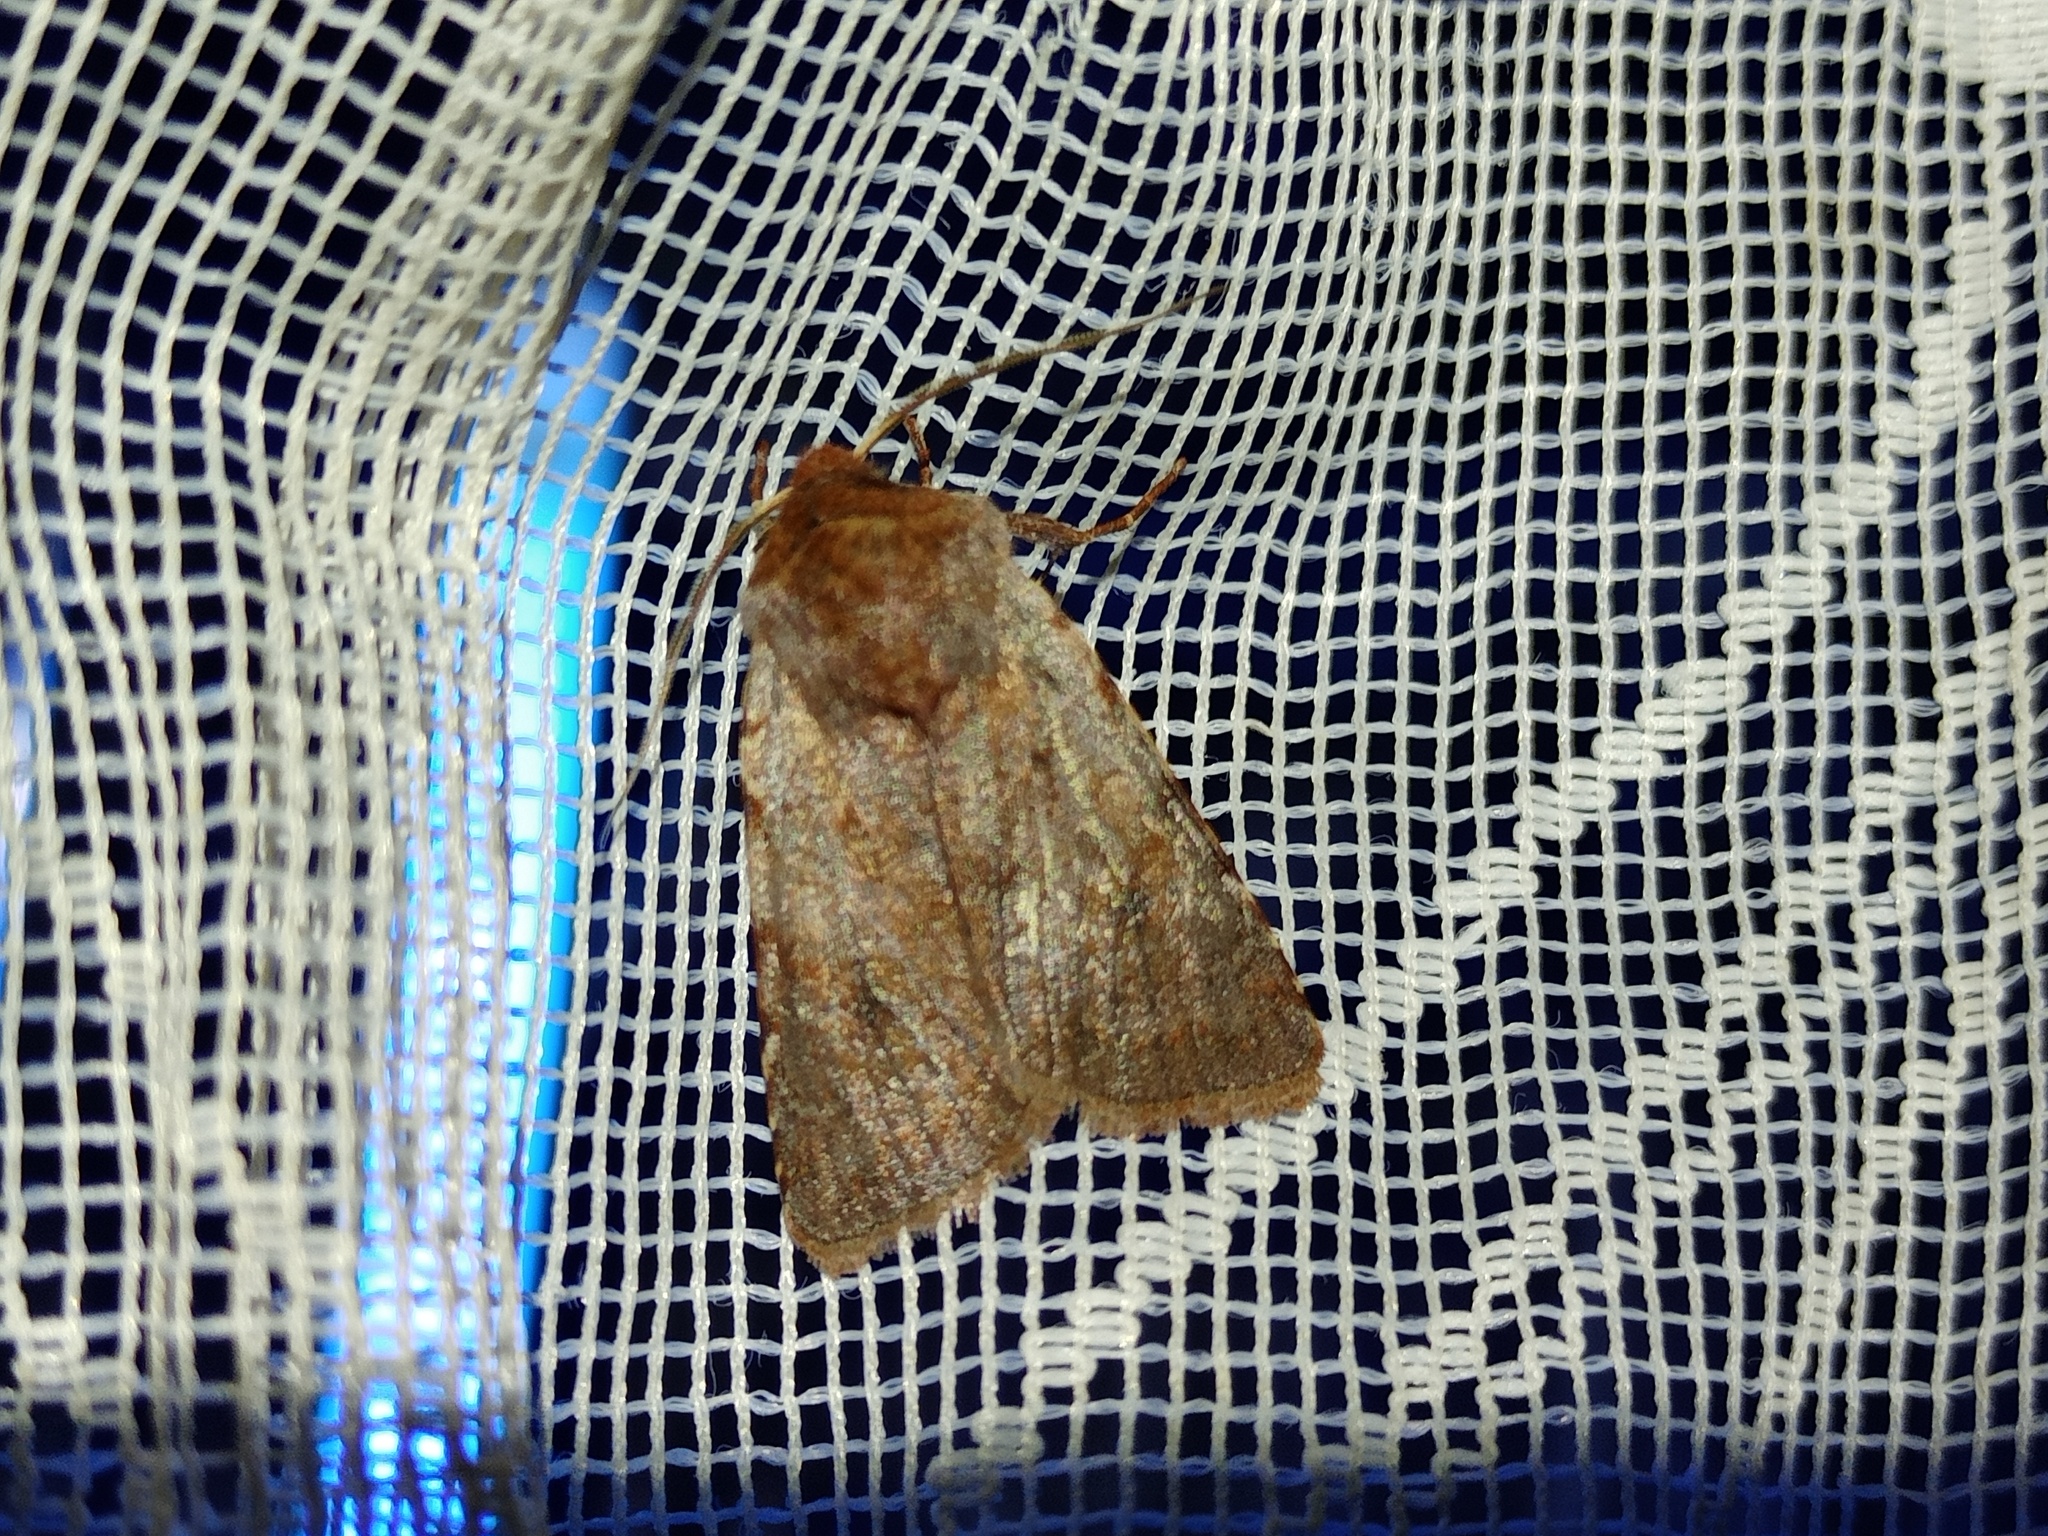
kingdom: Animalia
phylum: Arthropoda
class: Insecta
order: Lepidoptera
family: Noctuidae
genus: Cerastis
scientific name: Cerastis rubricosa
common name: Red chestnut
